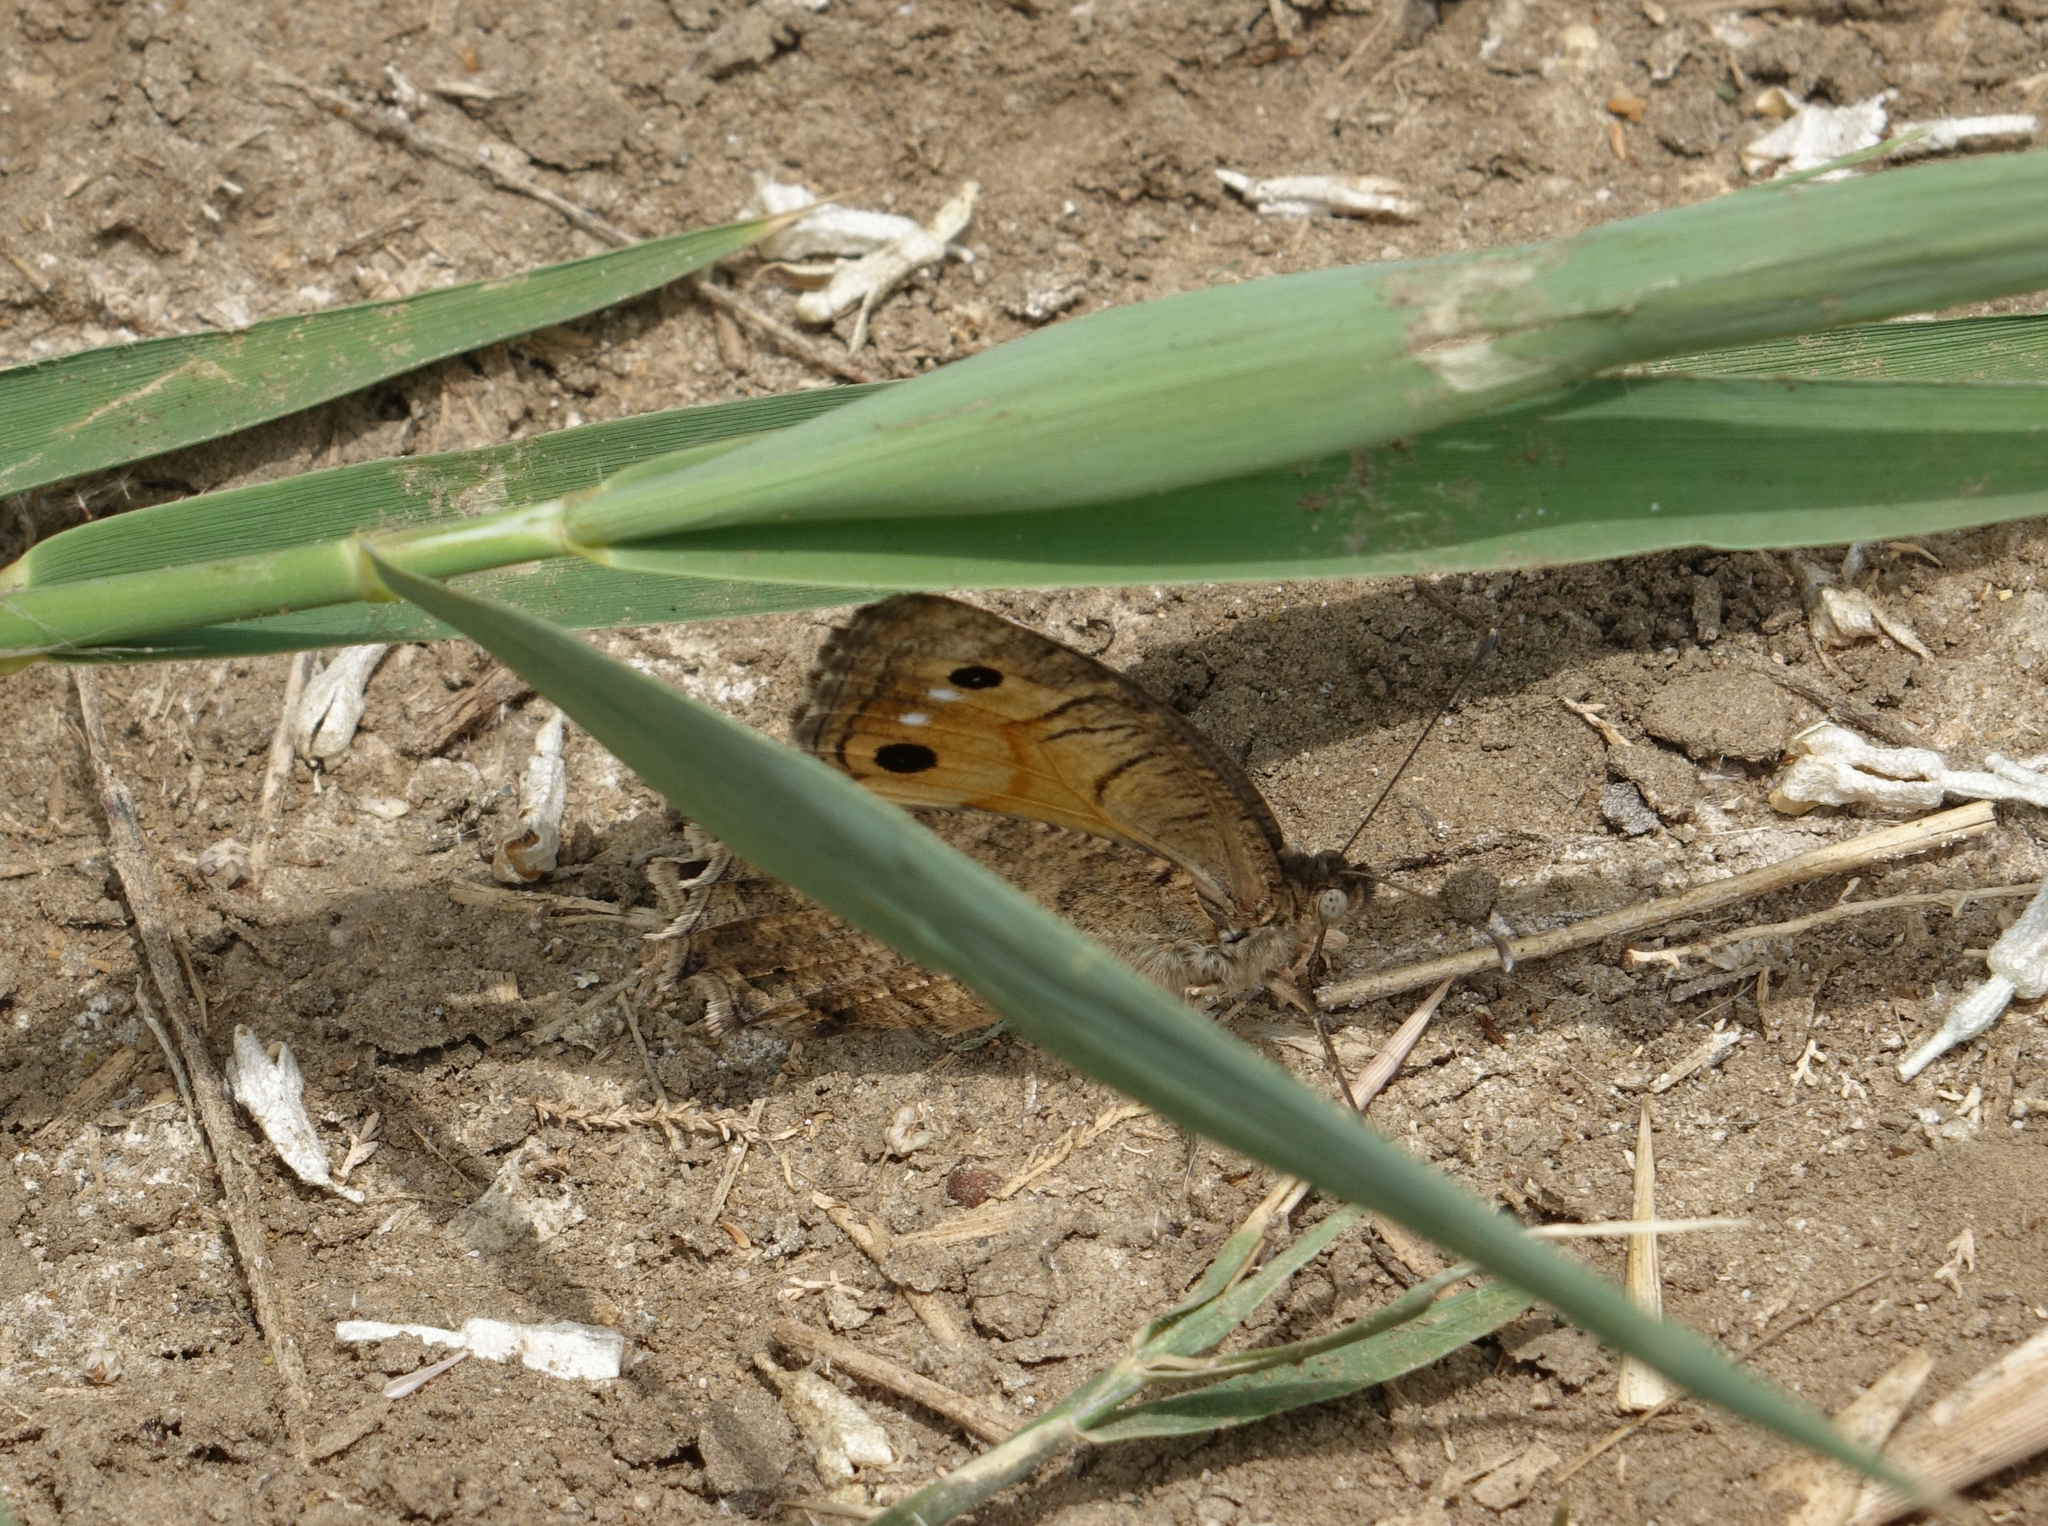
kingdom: Animalia
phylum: Arthropoda
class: Insecta
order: Lepidoptera
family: Nymphalidae
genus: Pseudochazara
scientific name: Pseudochazara pelopea
